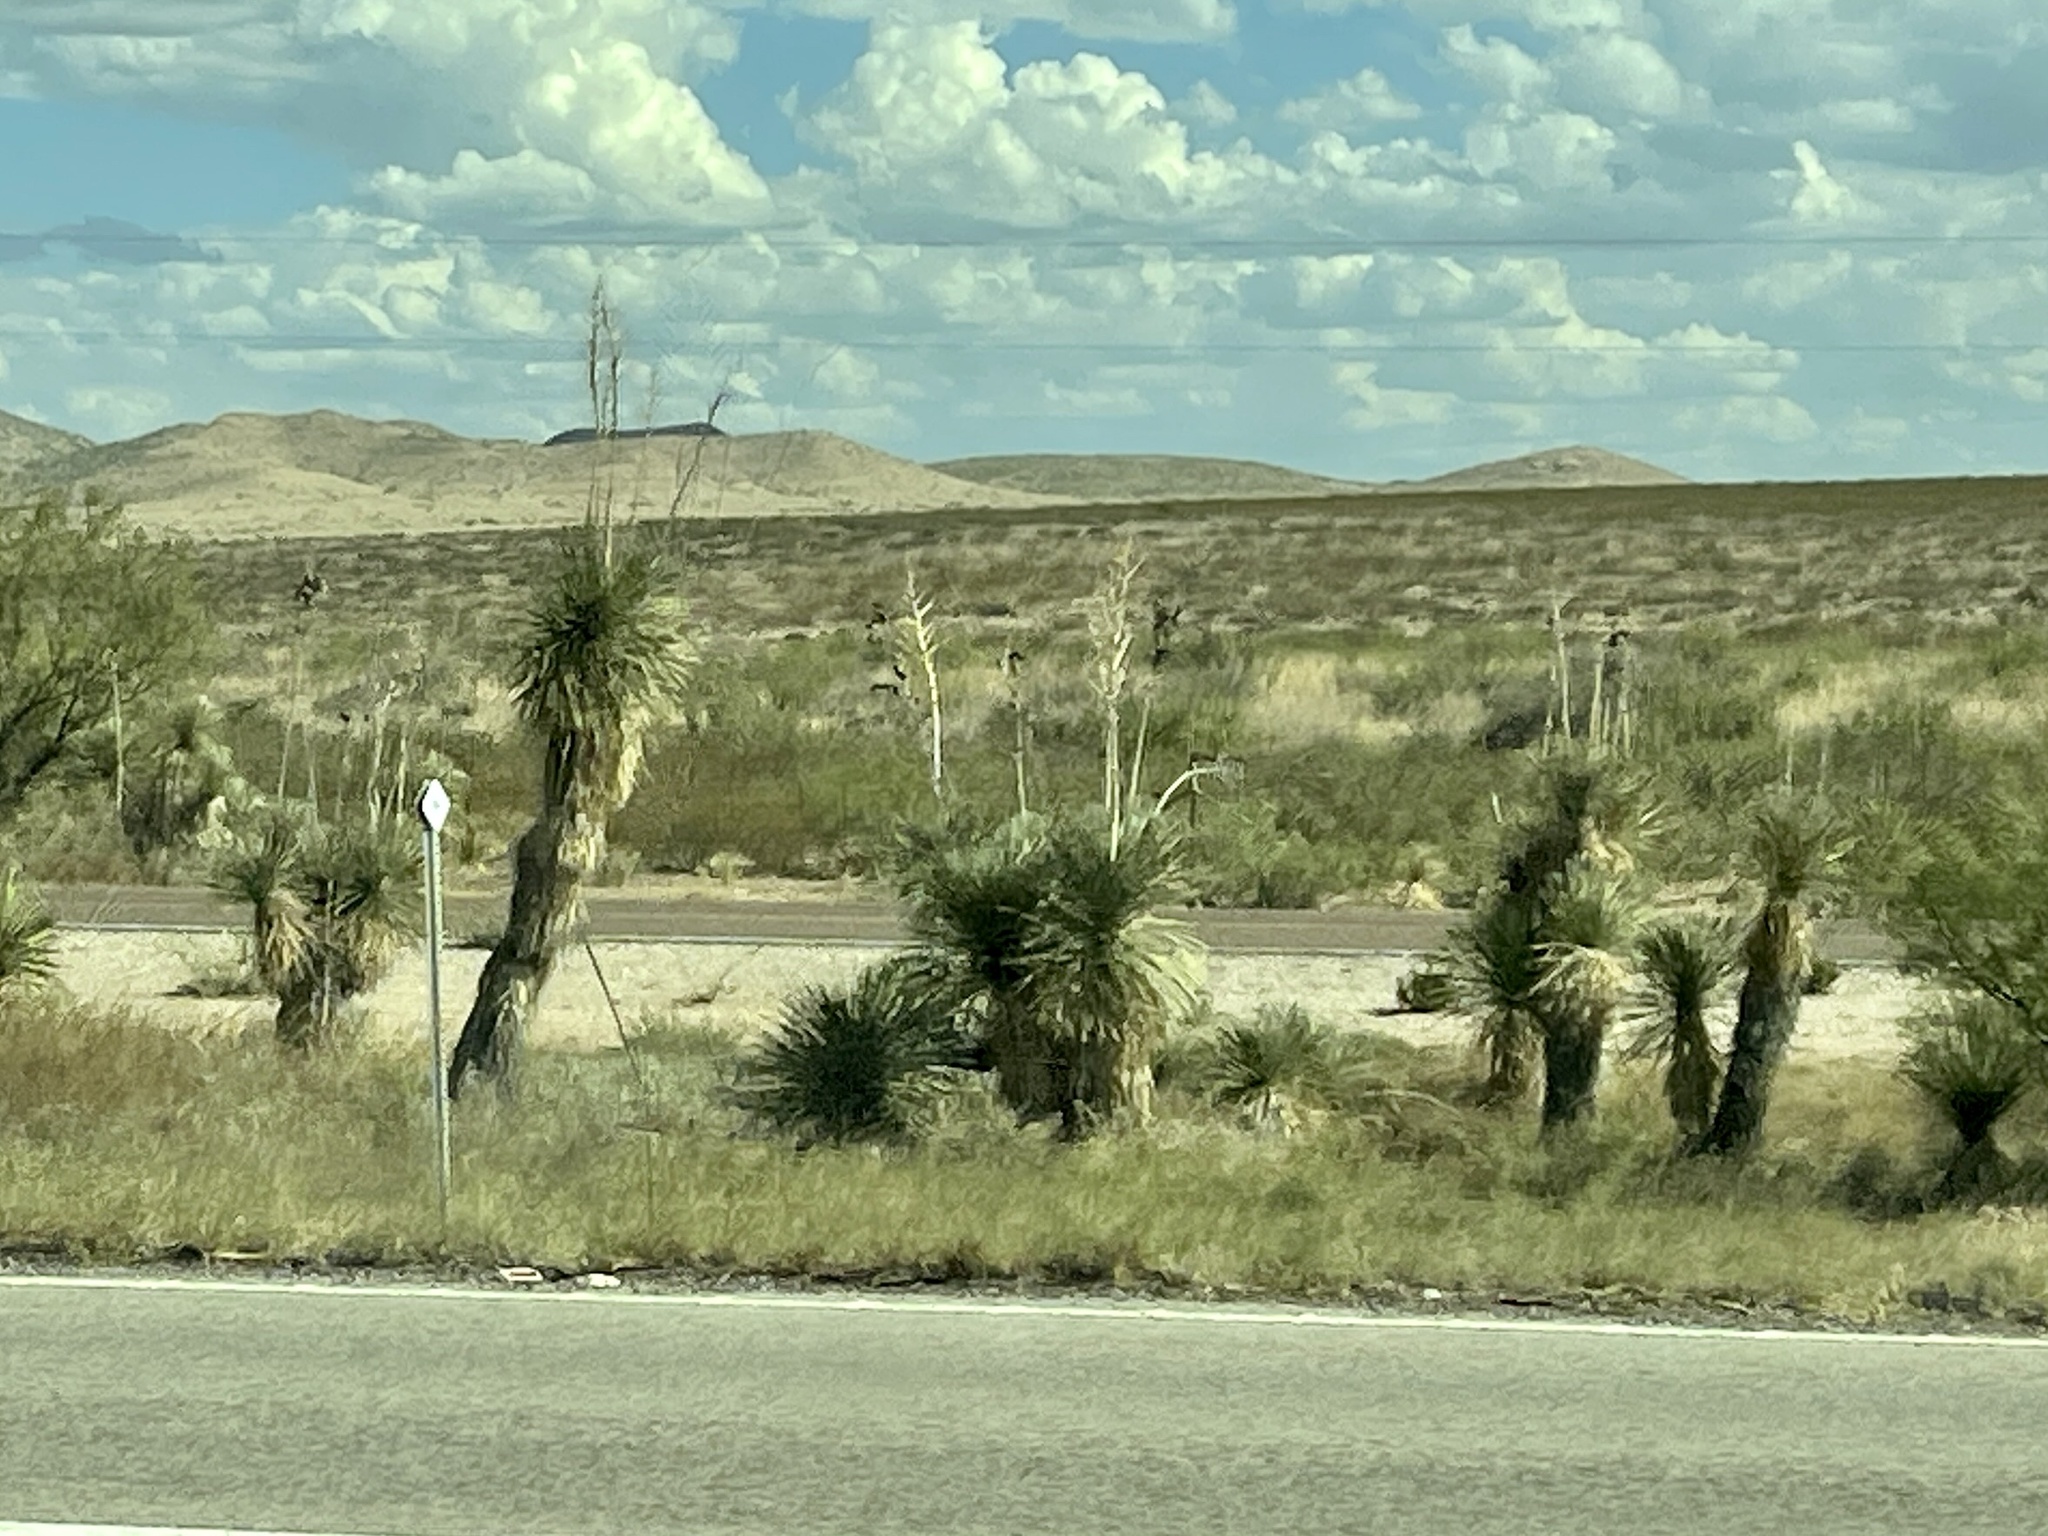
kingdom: Plantae
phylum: Tracheophyta
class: Liliopsida
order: Asparagales
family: Asparagaceae
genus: Yucca
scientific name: Yucca elata
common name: Palmella
